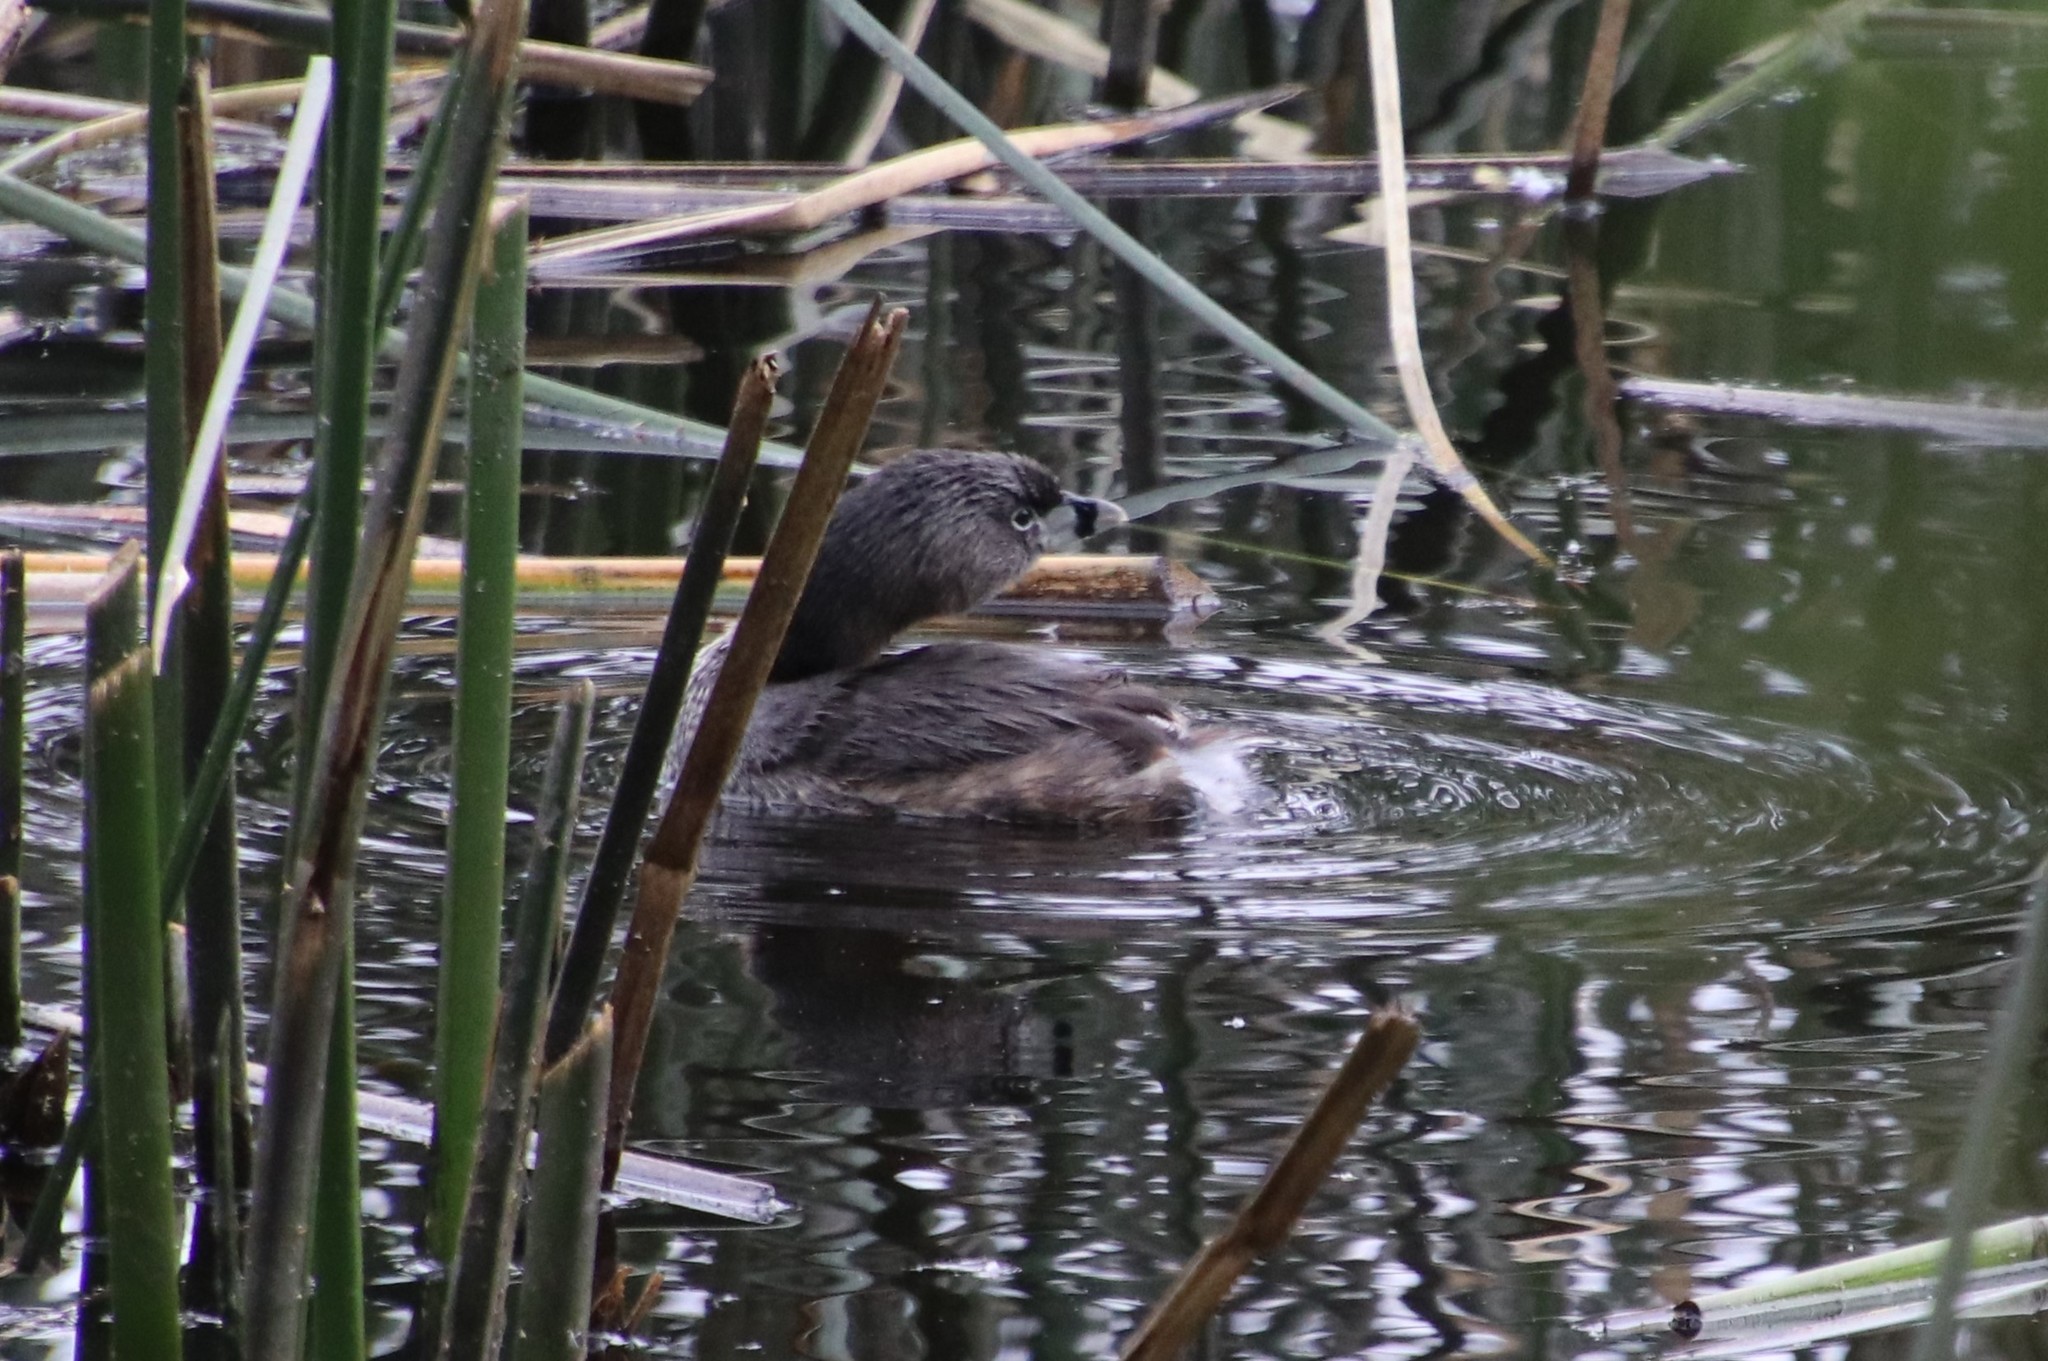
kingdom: Animalia
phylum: Chordata
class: Aves
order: Podicipediformes
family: Podicipedidae
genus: Podilymbus
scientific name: Podilymbus podiceps
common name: Pied-billed grebe
